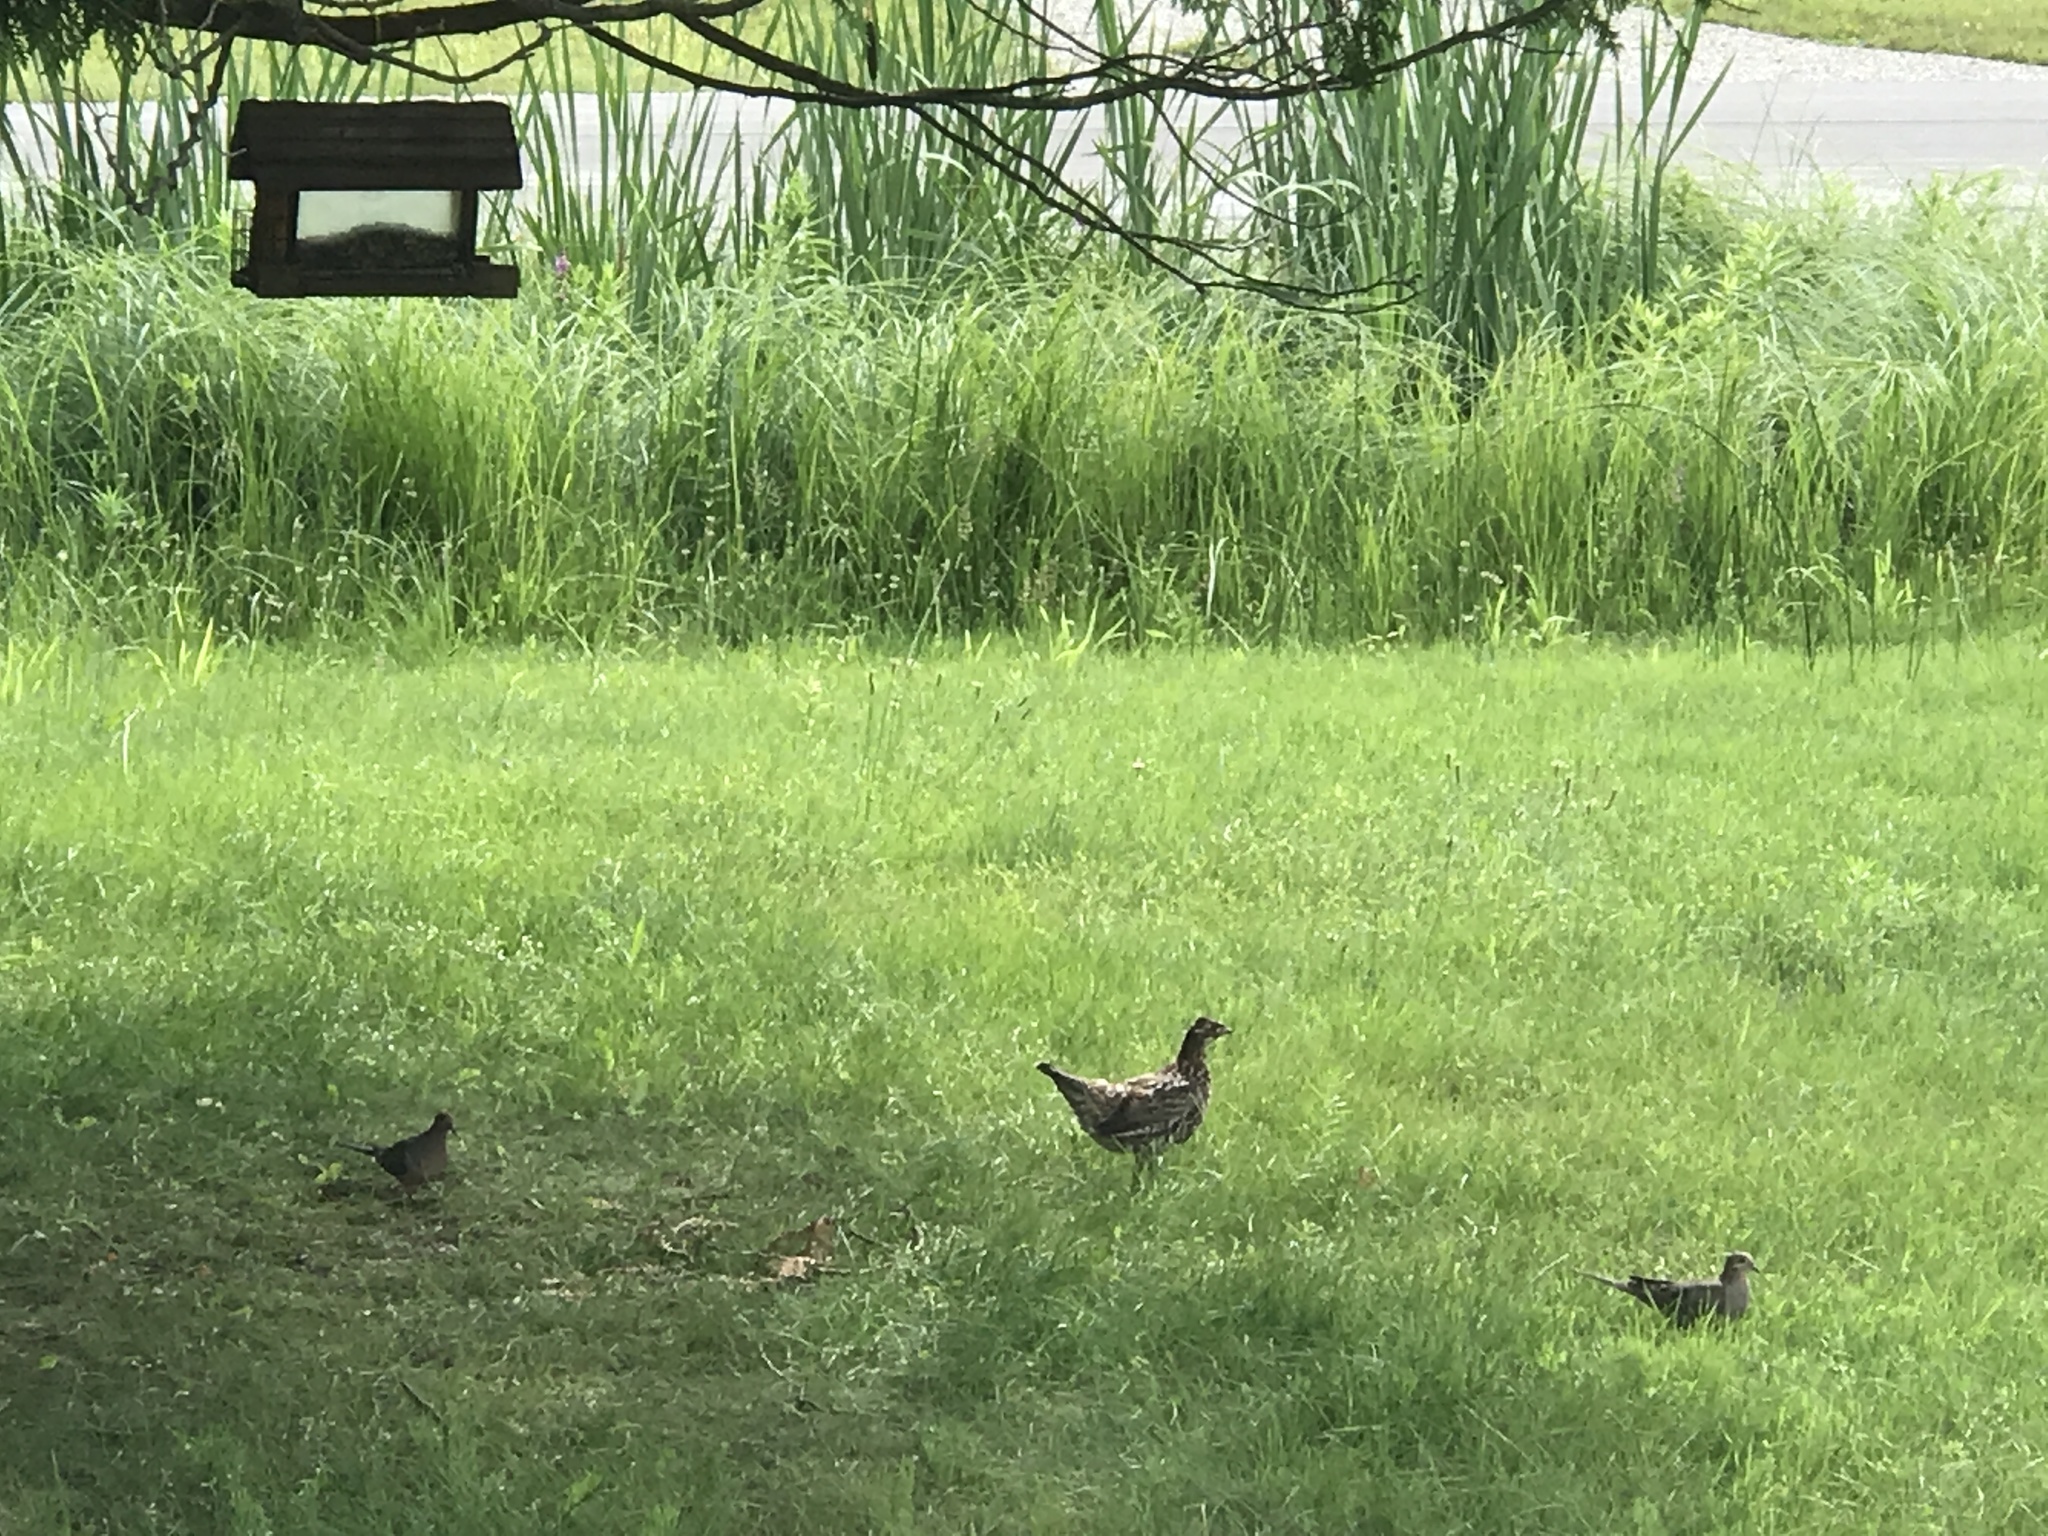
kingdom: Animalia
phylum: Chordata
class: Aves
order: Galliformes
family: Phasianidae
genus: Bonasa
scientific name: Bonasa umbellus
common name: Ruffed grouse
